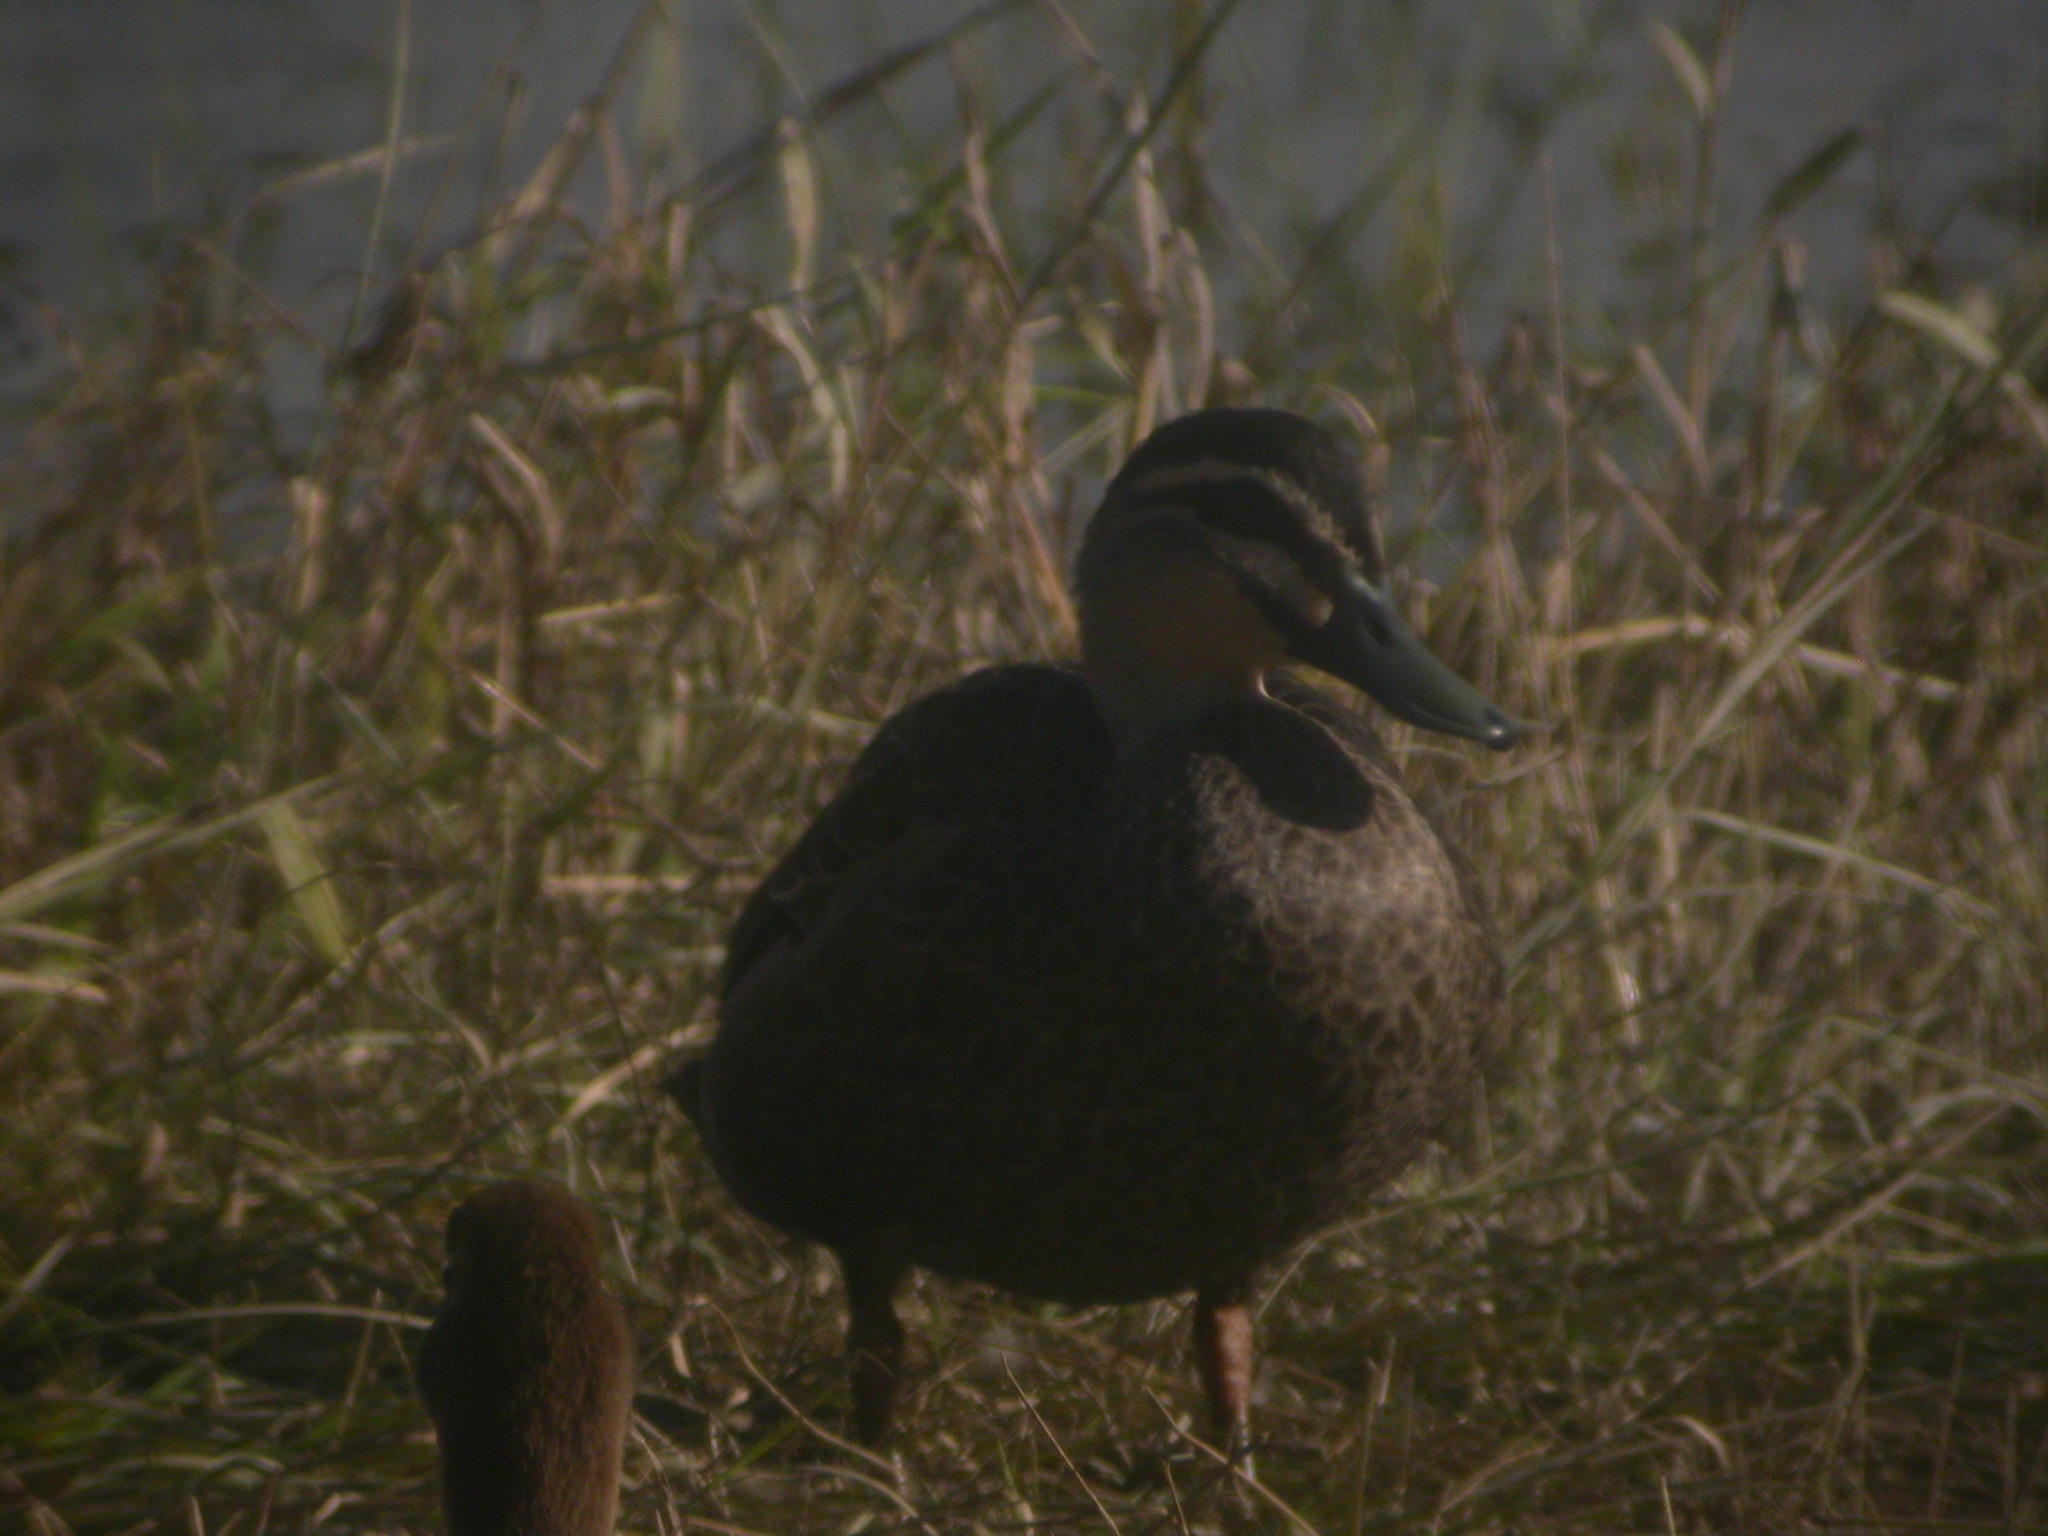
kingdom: Animalia
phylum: Chordata
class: Aves
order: Anseriformes
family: Anatidae
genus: Anas
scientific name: Anas superciliosa
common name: Pacific black duck
